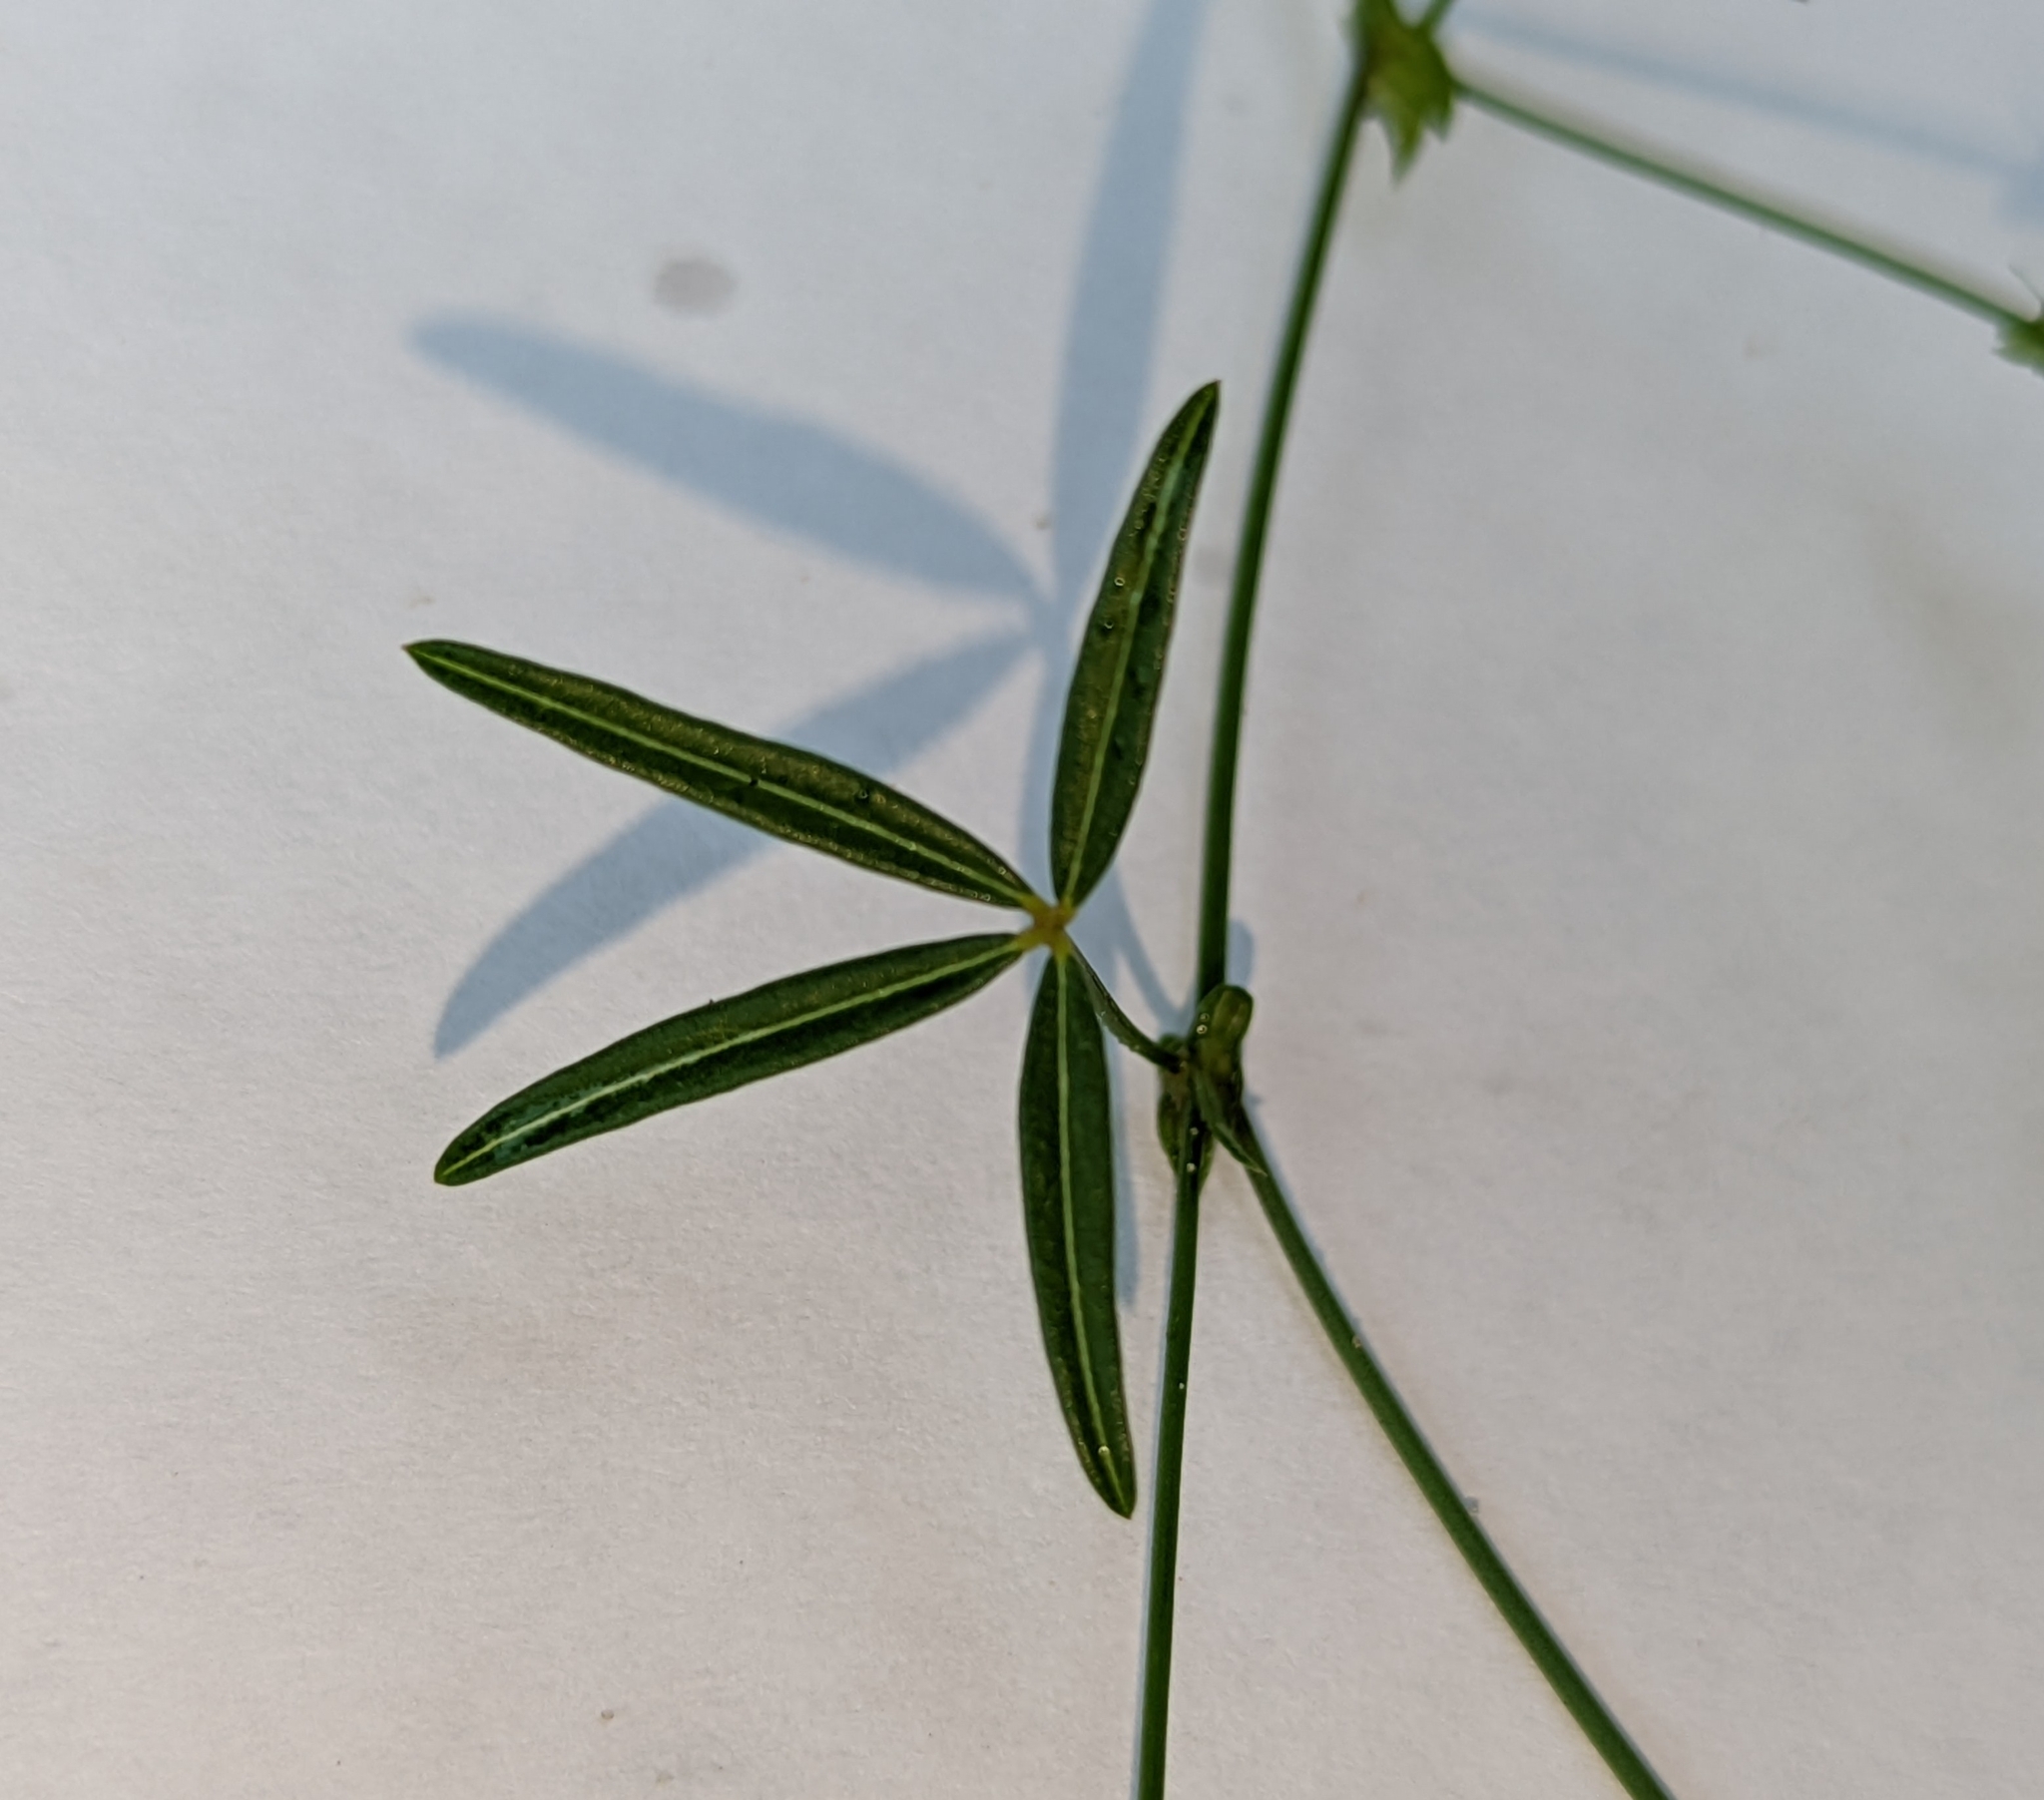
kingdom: Plantae
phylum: Tracheophyta
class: Magnoliopsida
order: Fabales
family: Fabaceae
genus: Zornia
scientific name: Zornia bracteata
